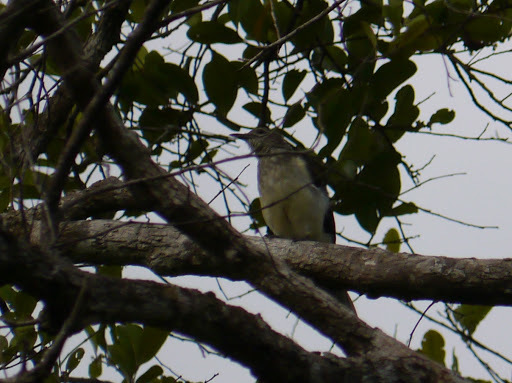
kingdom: Animalia
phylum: Chordata
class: Aves
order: Passeriformes
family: Pycnonotidae
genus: Thescelocichla
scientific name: Thescelocichla leucopleura
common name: Swamp palm bulbul
